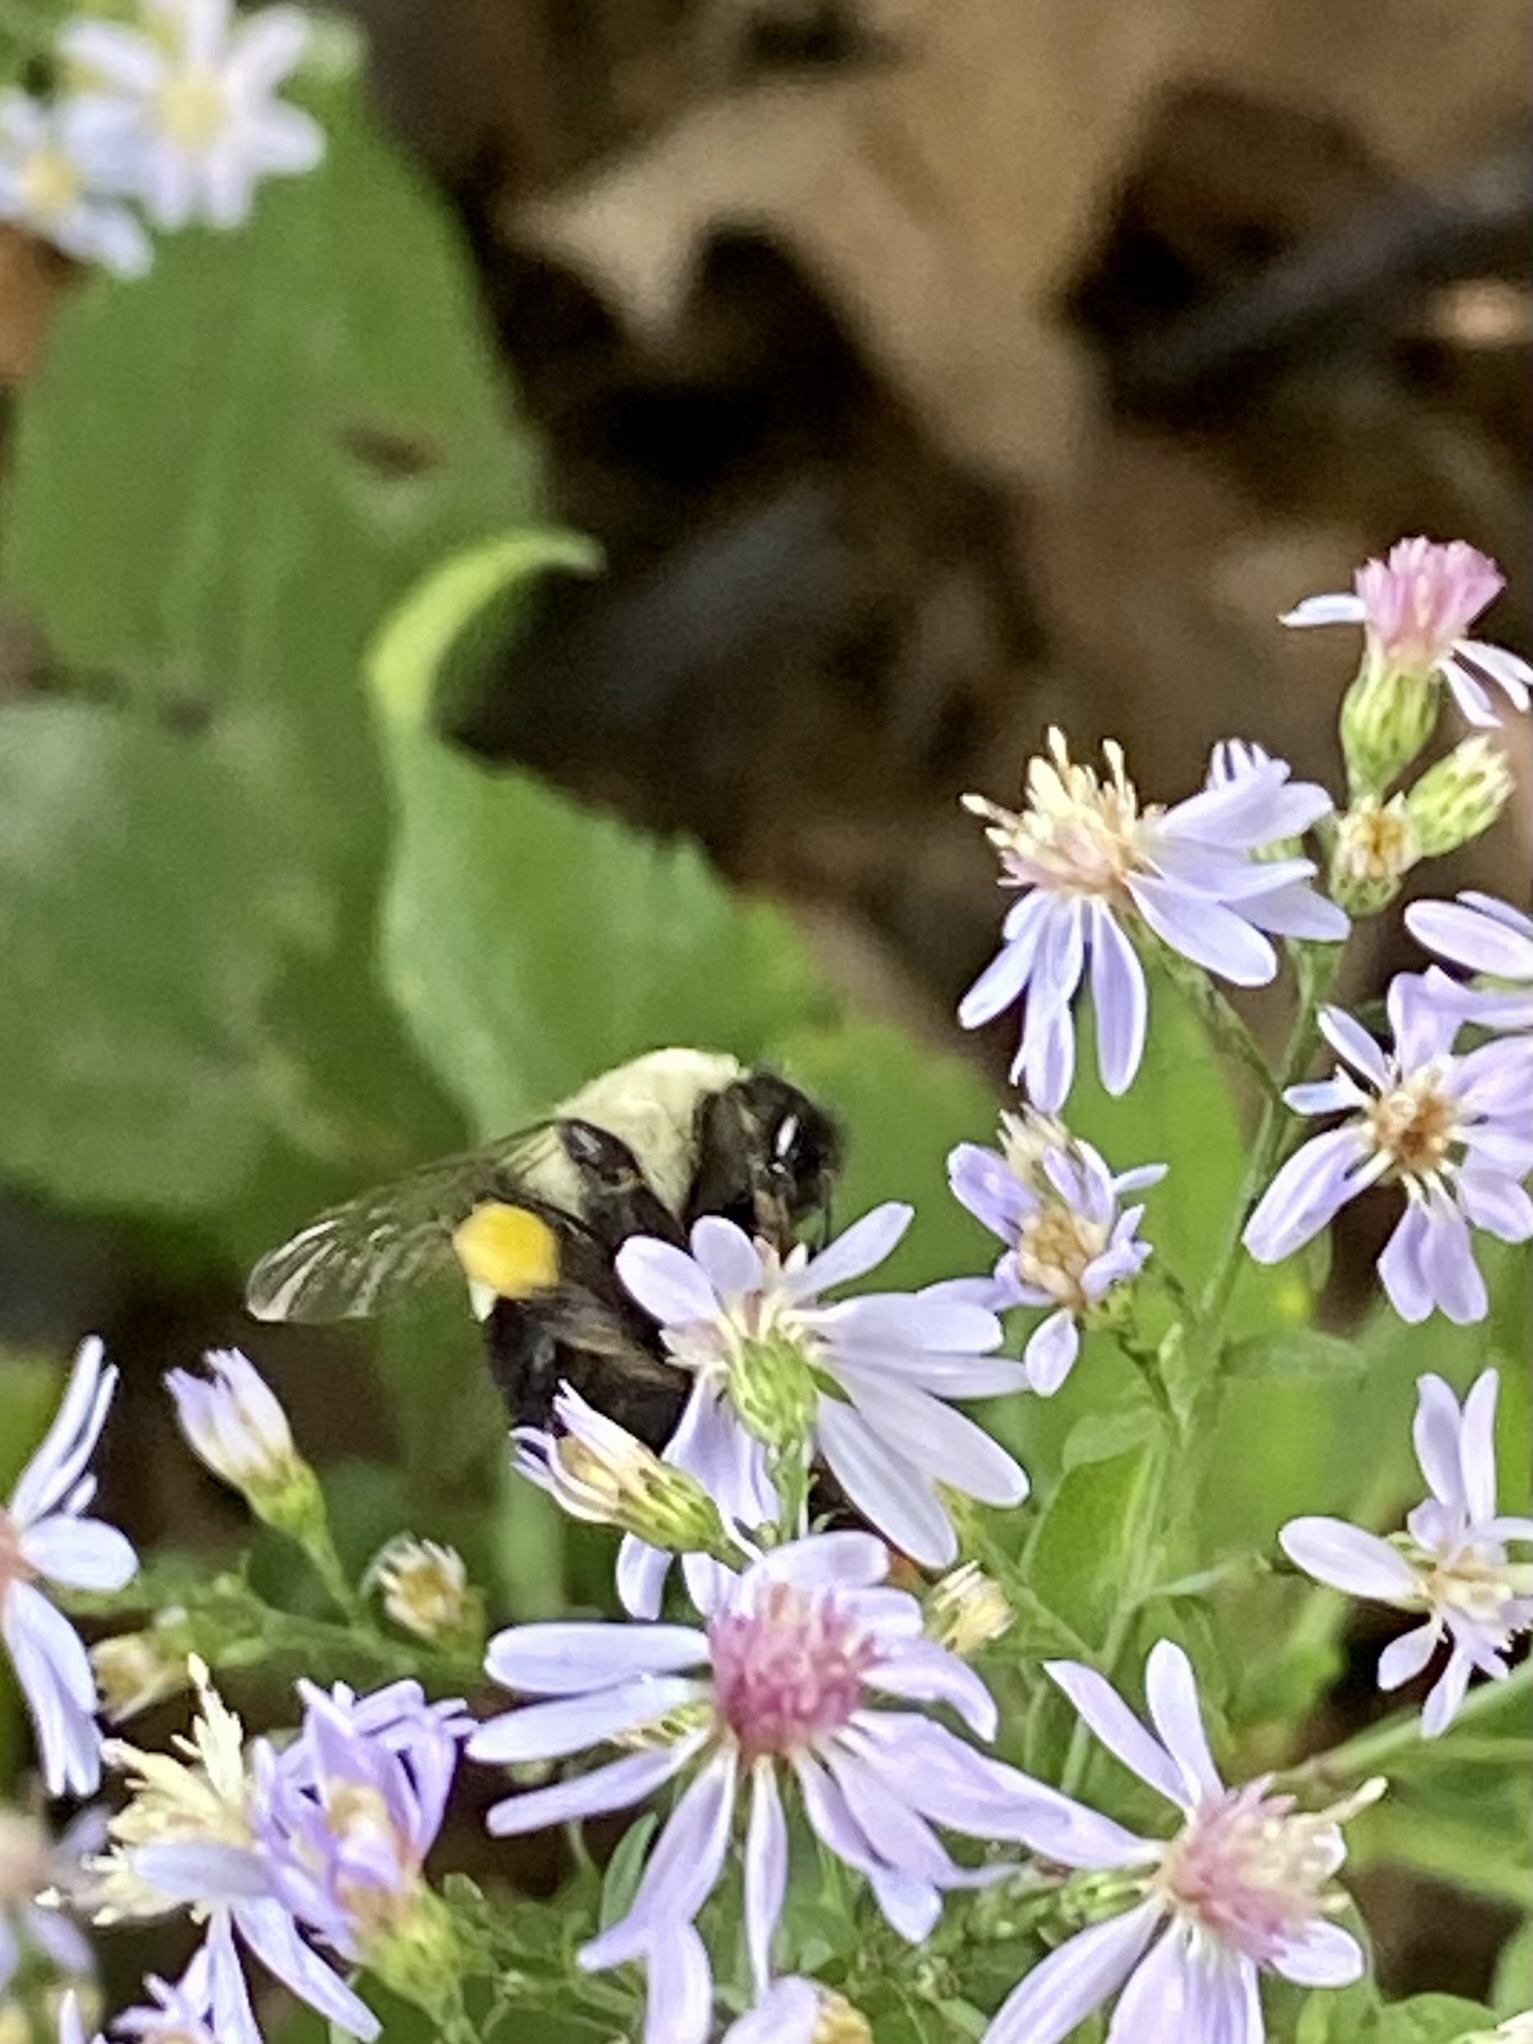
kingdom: Animalia
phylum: Arthropoda
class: Insecta
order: Hymenoptera
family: Apidae
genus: Bombus
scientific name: Bombus impatiens
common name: Common eastern bumble bee
